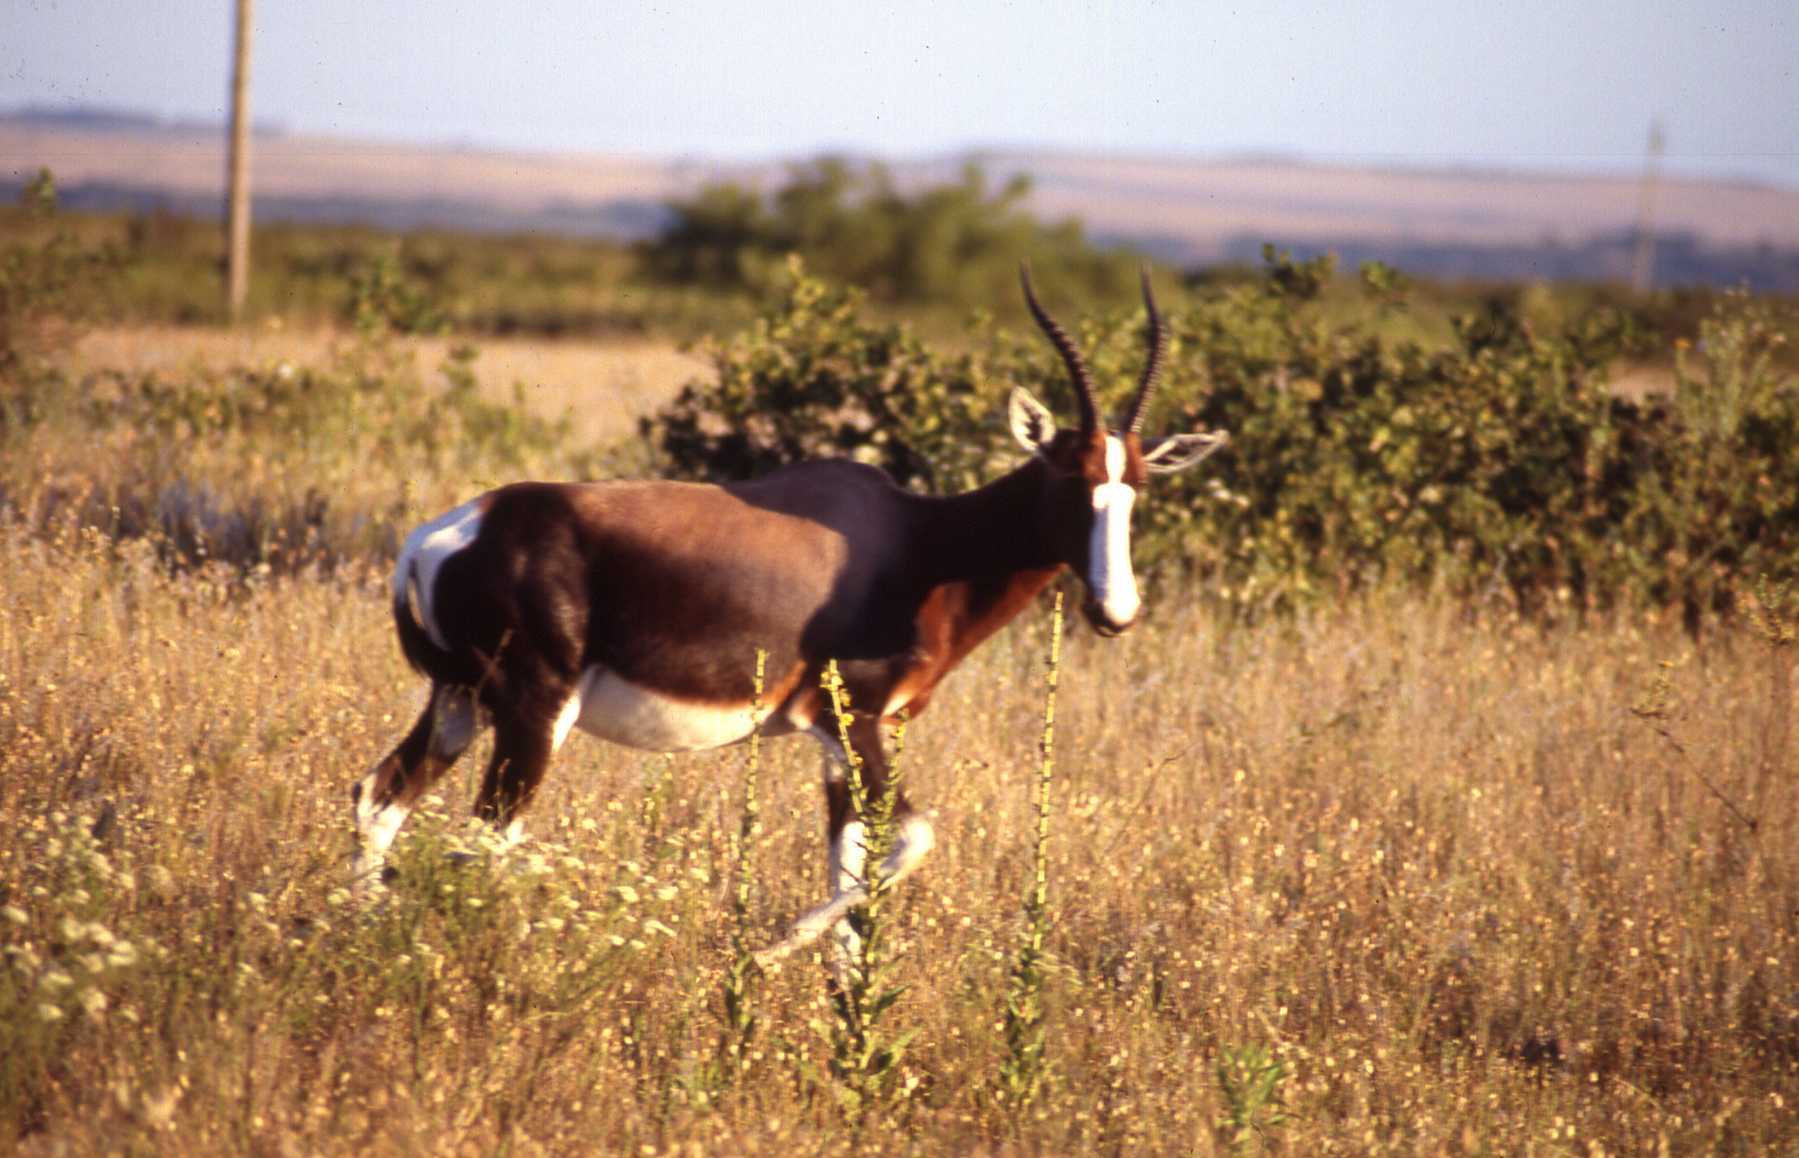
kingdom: Animalia
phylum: Chordata
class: Mammalia
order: Artiodactyla
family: Bovidae
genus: Damaliscus
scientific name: Damaliscus pygargus
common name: Bontebok
